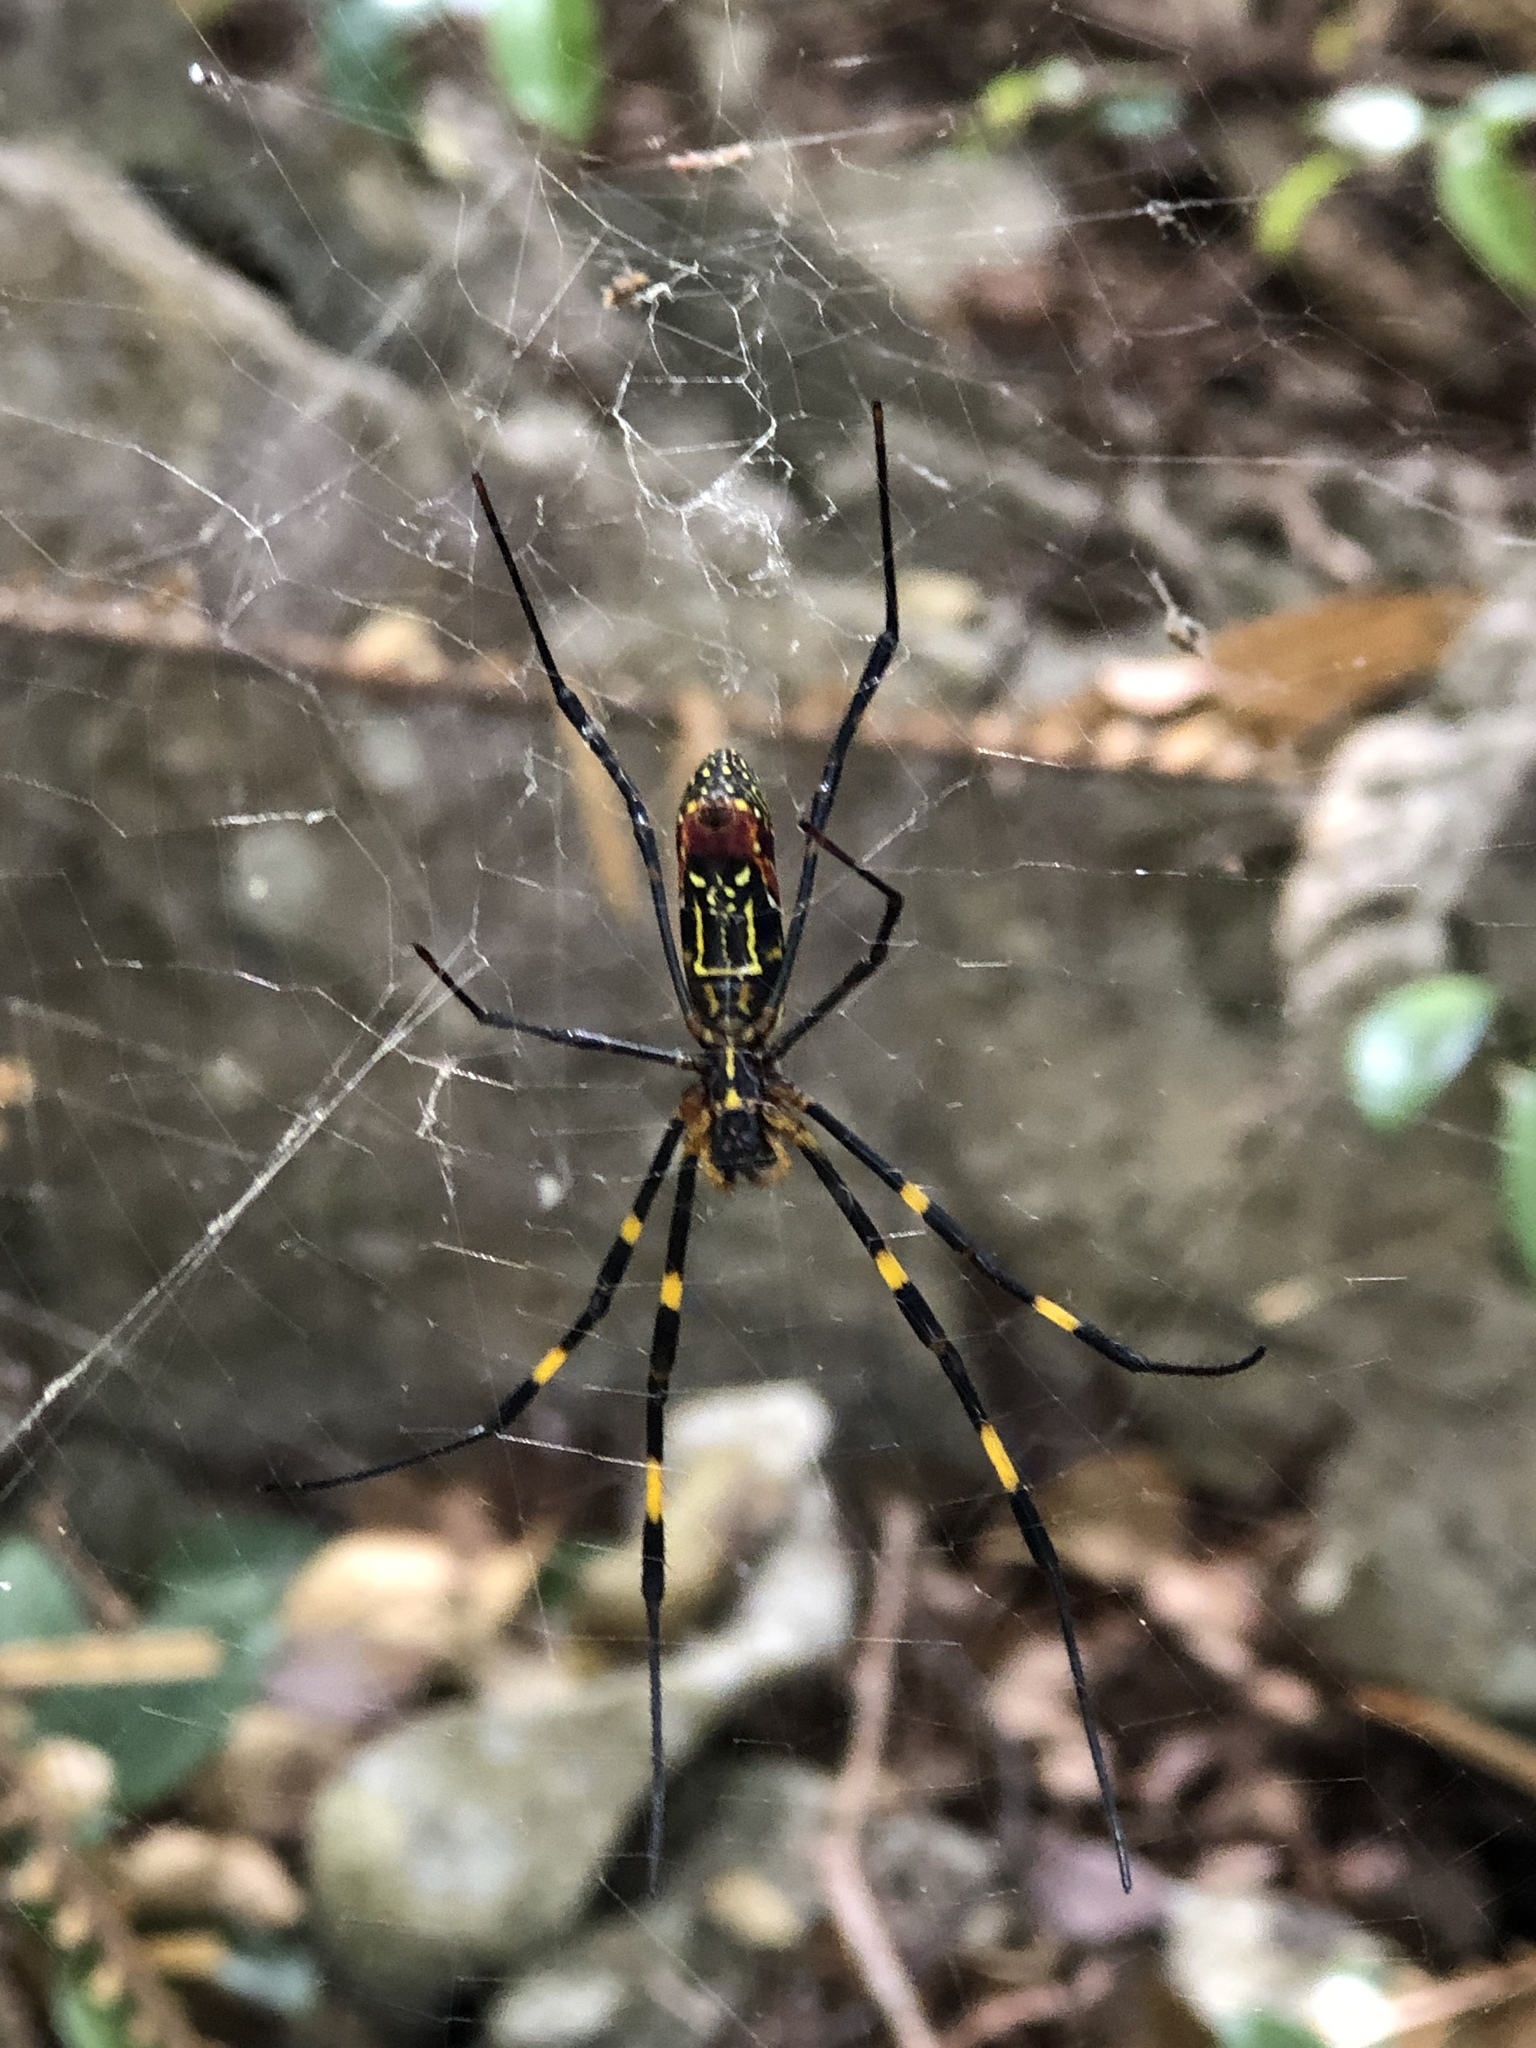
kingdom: Animalia
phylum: Arthropoda
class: Arachnida
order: Araneae
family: Araneidae
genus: Trichonephila
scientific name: Trichonephila clavata
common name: Jorō spider
